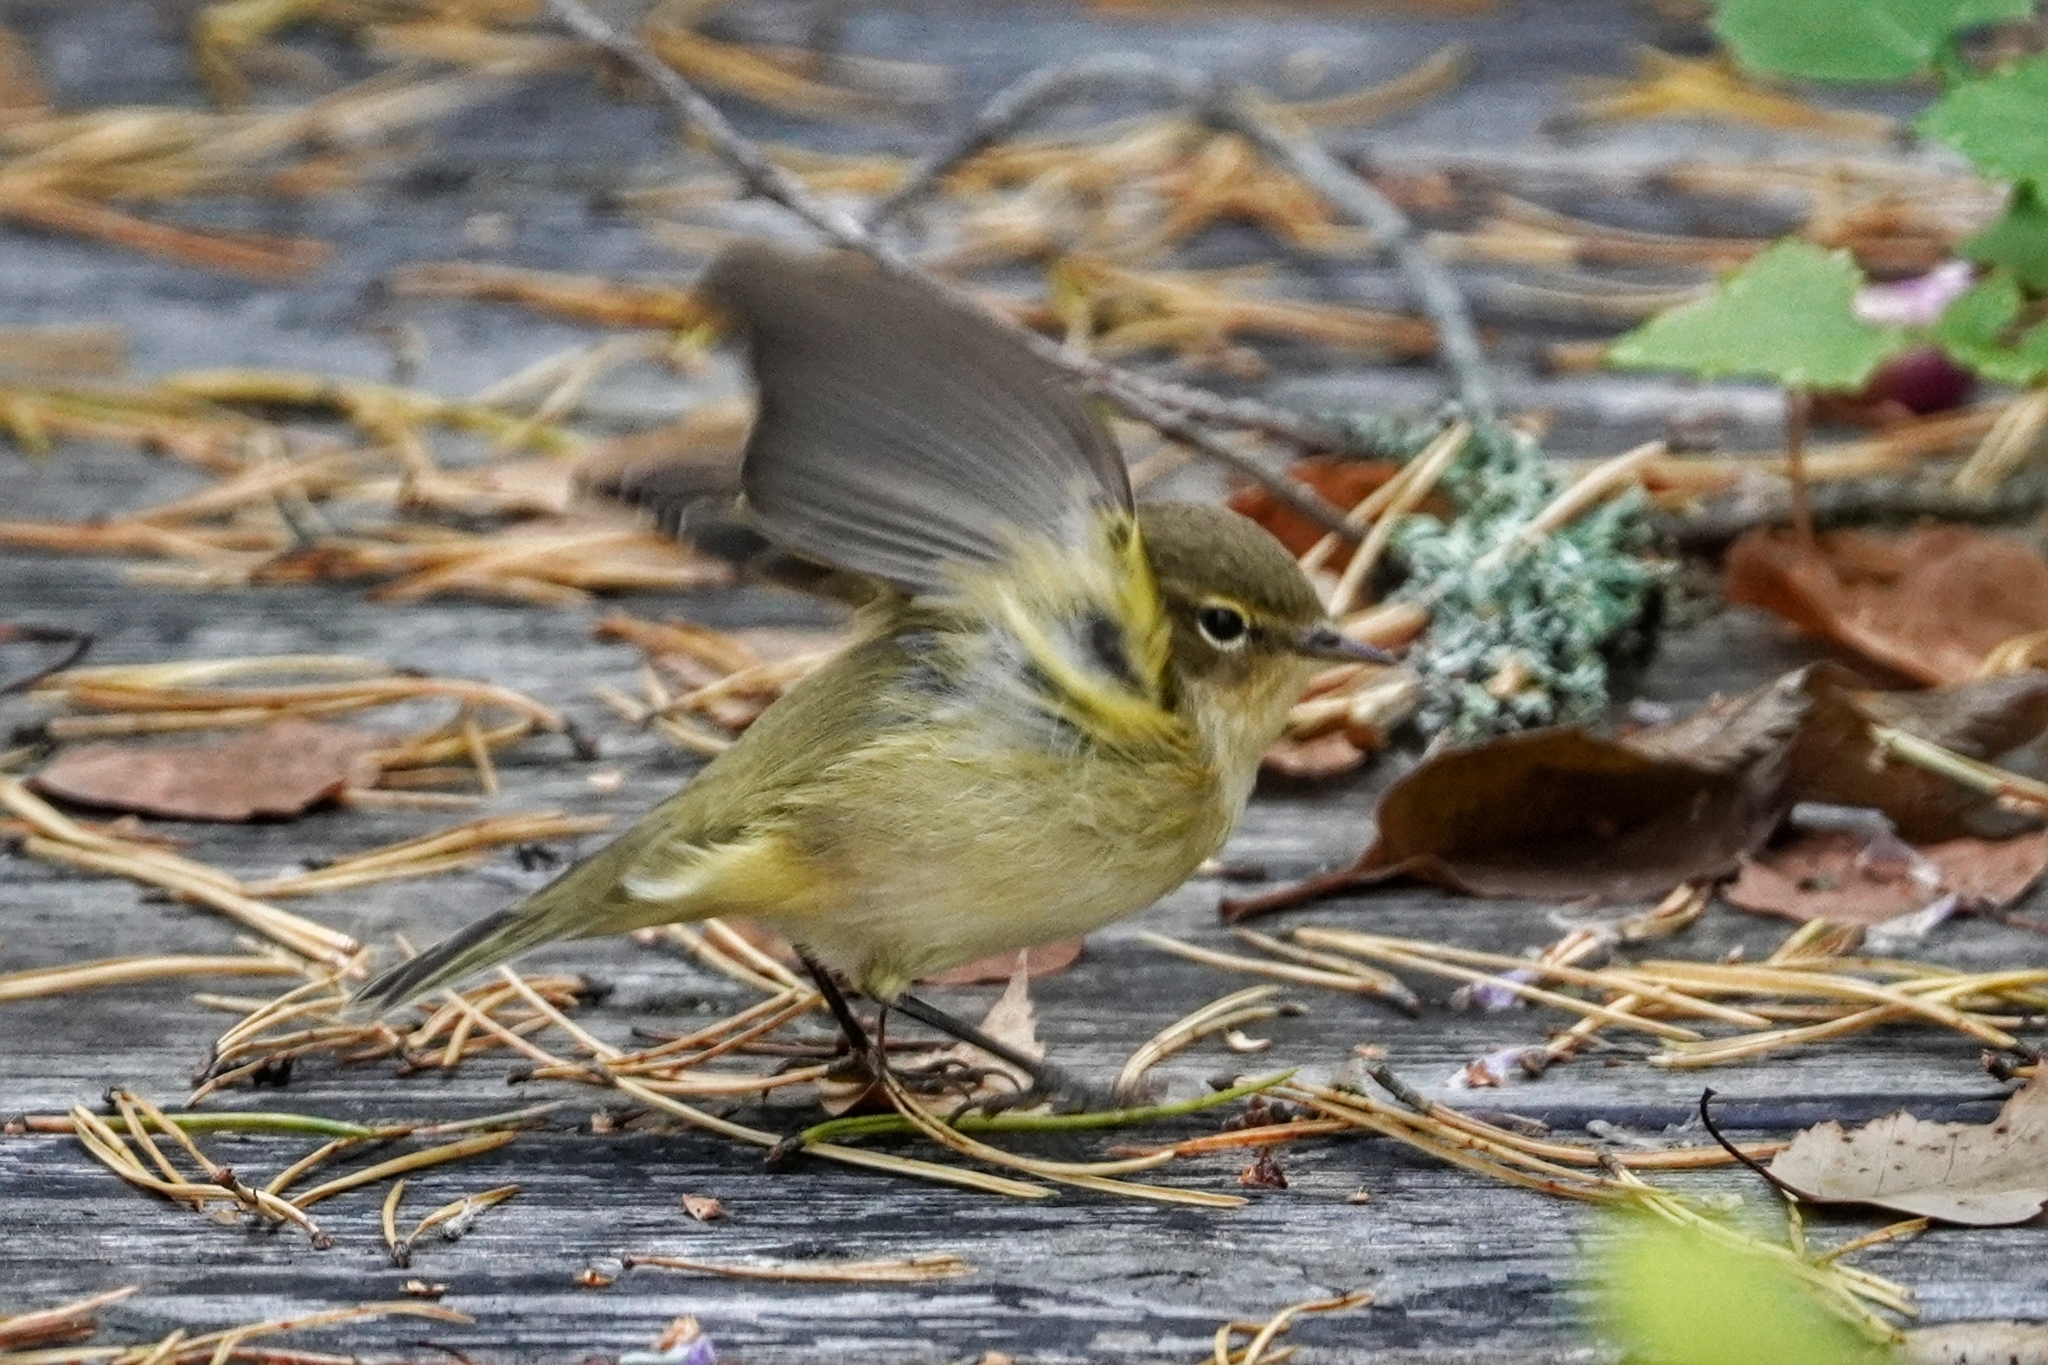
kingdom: Animalia
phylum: Chordata
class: Aves
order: Passeriformes
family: Phylloscopidae
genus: Phylloscopus
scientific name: Phylloscopus collybita
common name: Common chiffchaff
